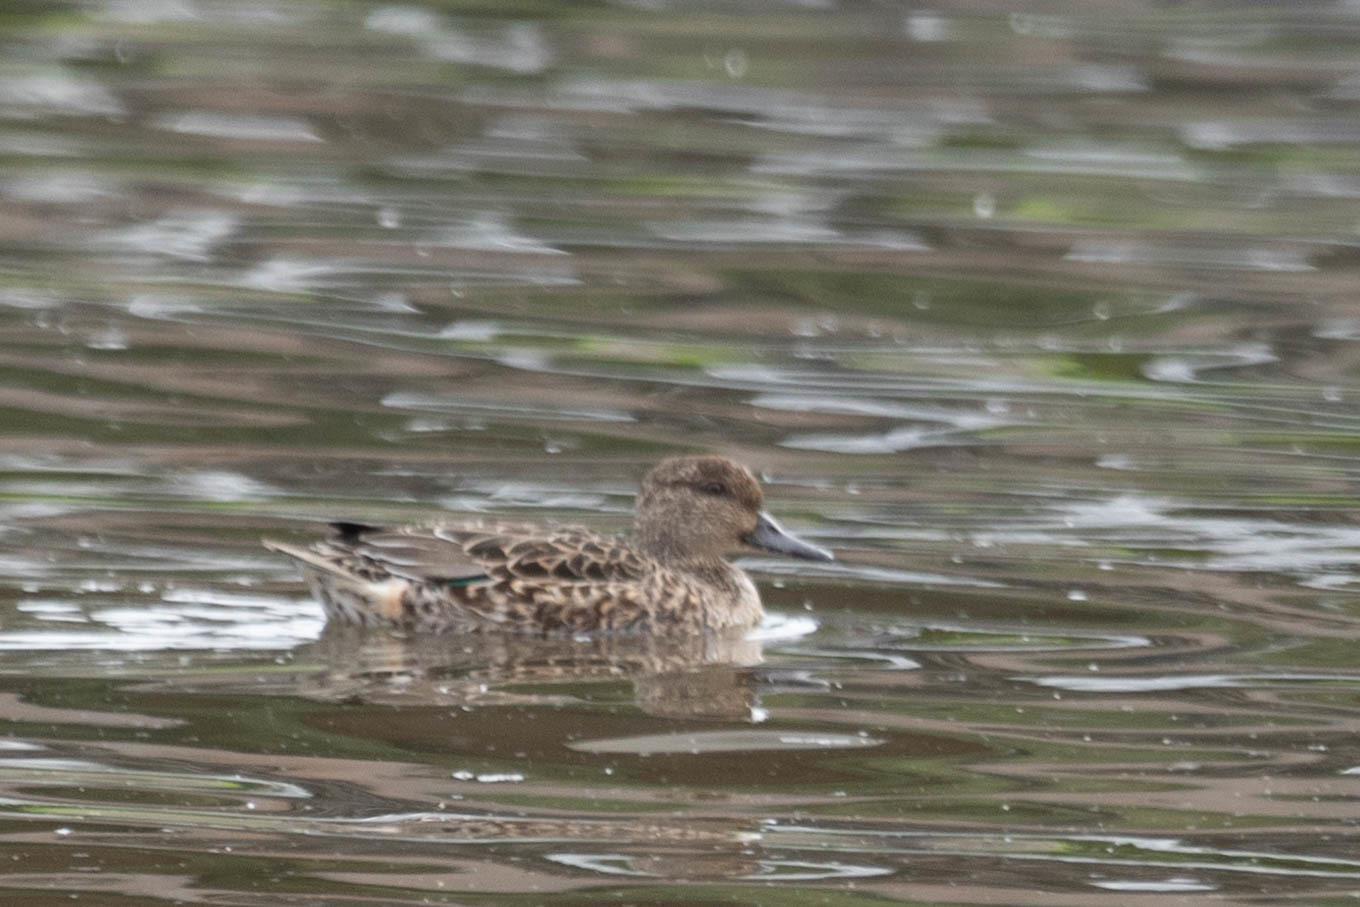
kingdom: Animalia
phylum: Chordata
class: Aves
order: Anseriformes
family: Anatidae
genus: Anas
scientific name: Anas crecca
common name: Eurasian teal
